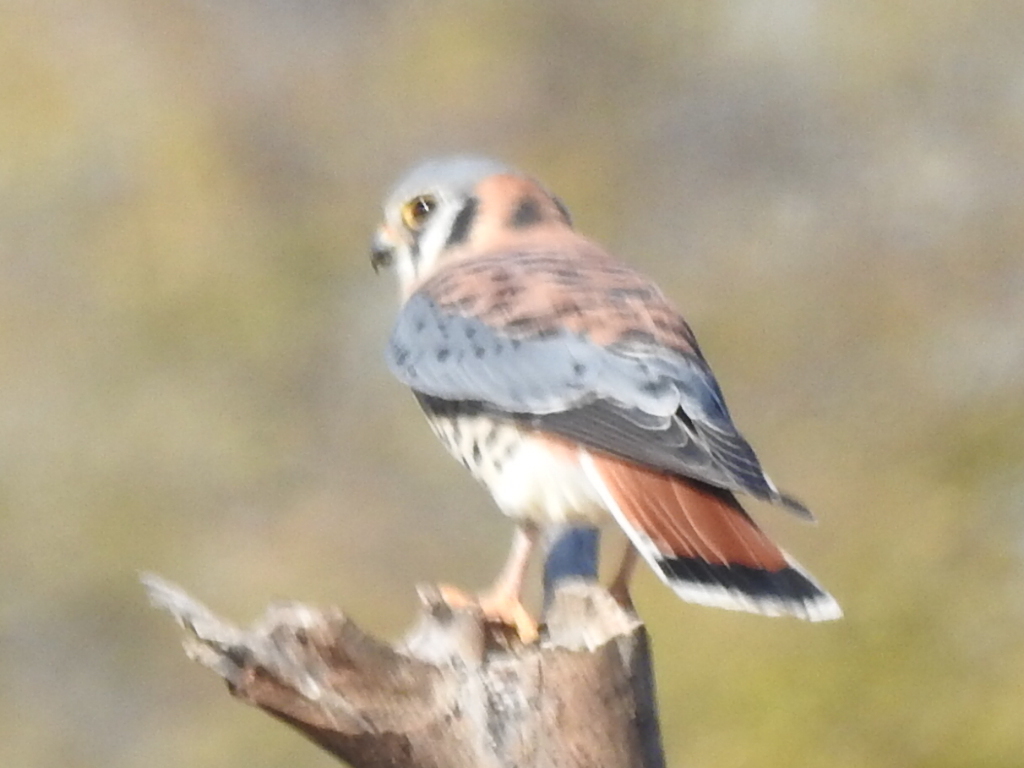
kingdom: Animalia
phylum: Chordata
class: Aves
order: Falconiformes
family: Falconidae
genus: Falco
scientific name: Falco sparverius
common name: American kestrel
